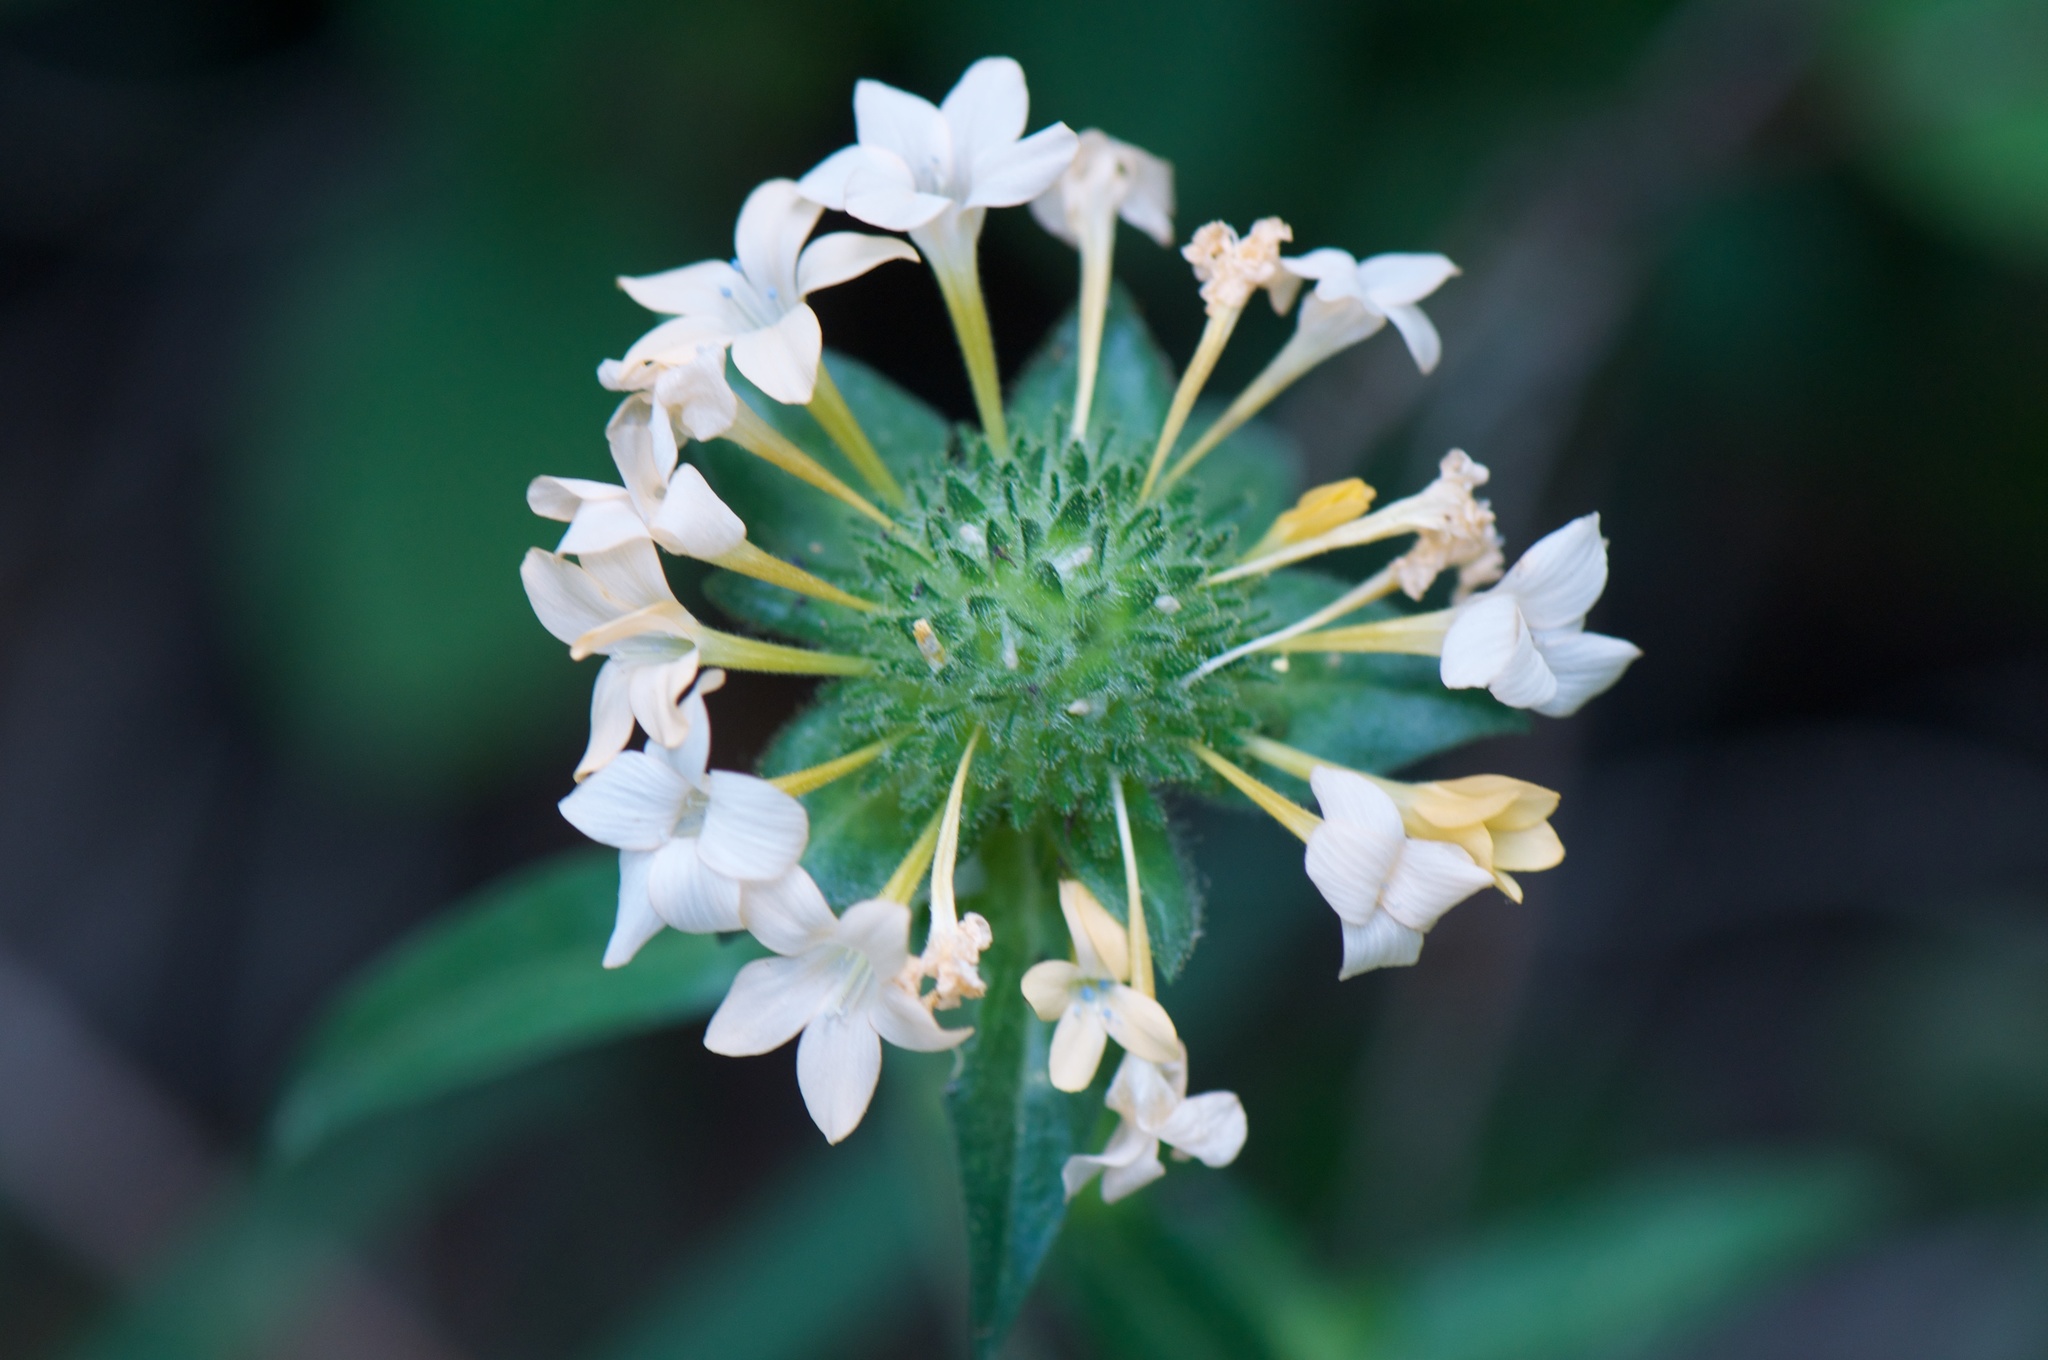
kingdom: Plantae
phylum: Tracheophyta
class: Magnoliopsida
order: Ericales
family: Polemoniaceae
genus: Collomia
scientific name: Collomia grandiflora
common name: California strawflower
